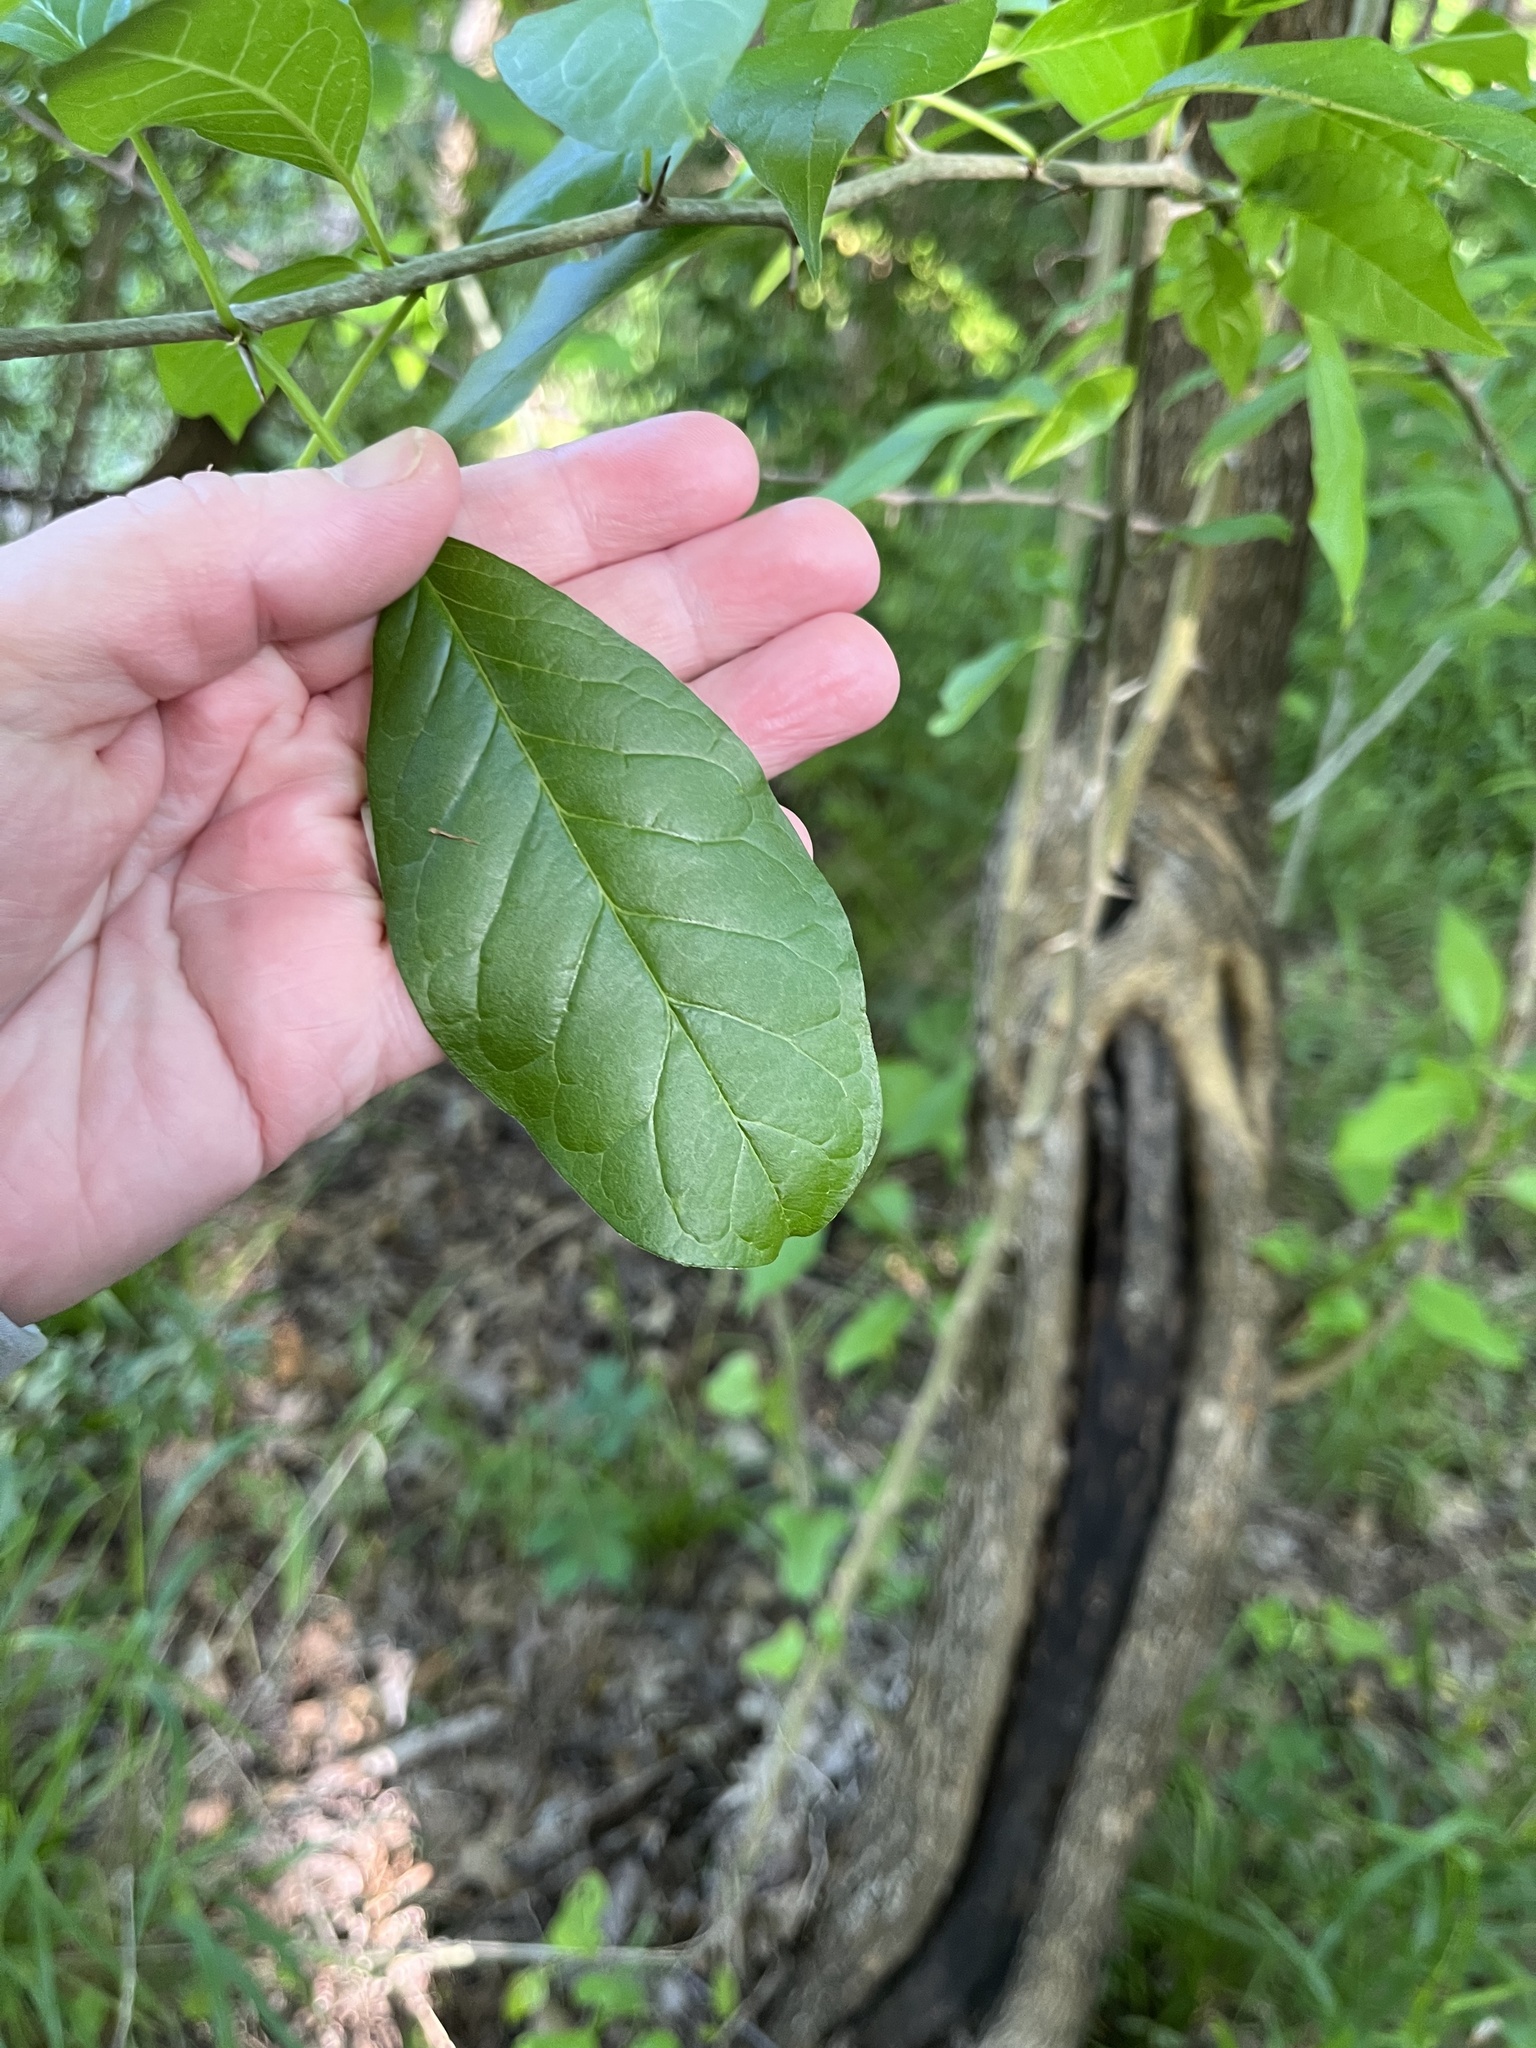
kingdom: Plantae
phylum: Tracheophyta
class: Magnoliopsida
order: Rosales
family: Moraceae
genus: Maclura
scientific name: Maclura pomifera
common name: Osage-orange
